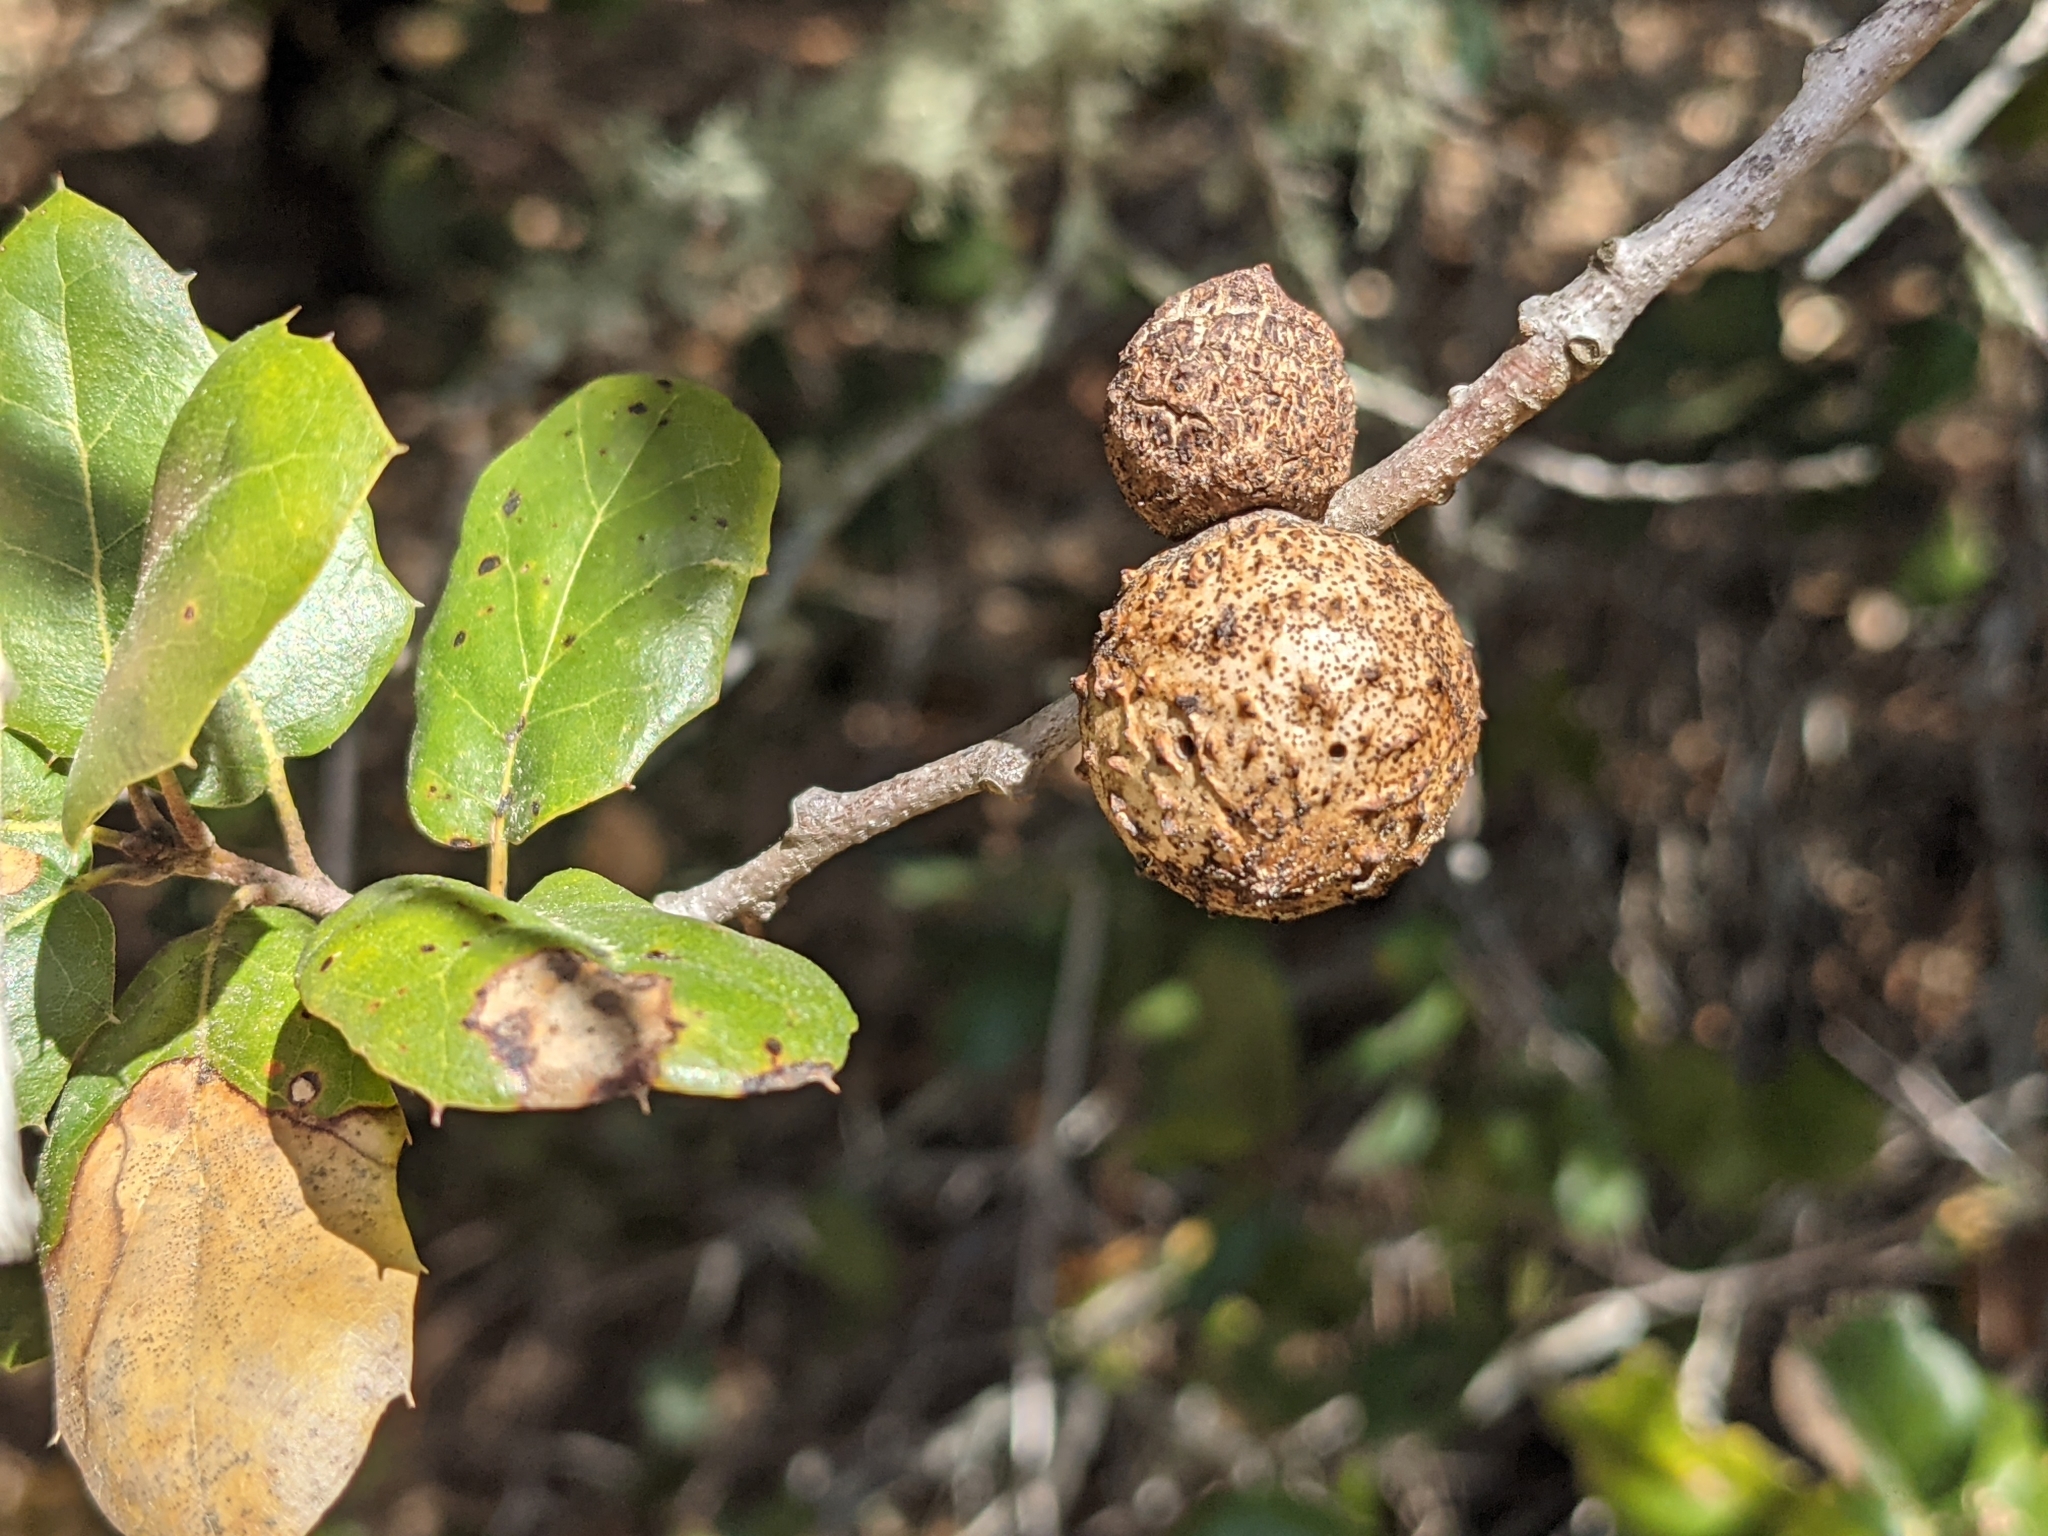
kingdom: Animalia
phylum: Arthropoda
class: Insecta
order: Hymenoptera
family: Cynipidae
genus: Amphibolips
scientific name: Amphibolips quercuspomiformis
